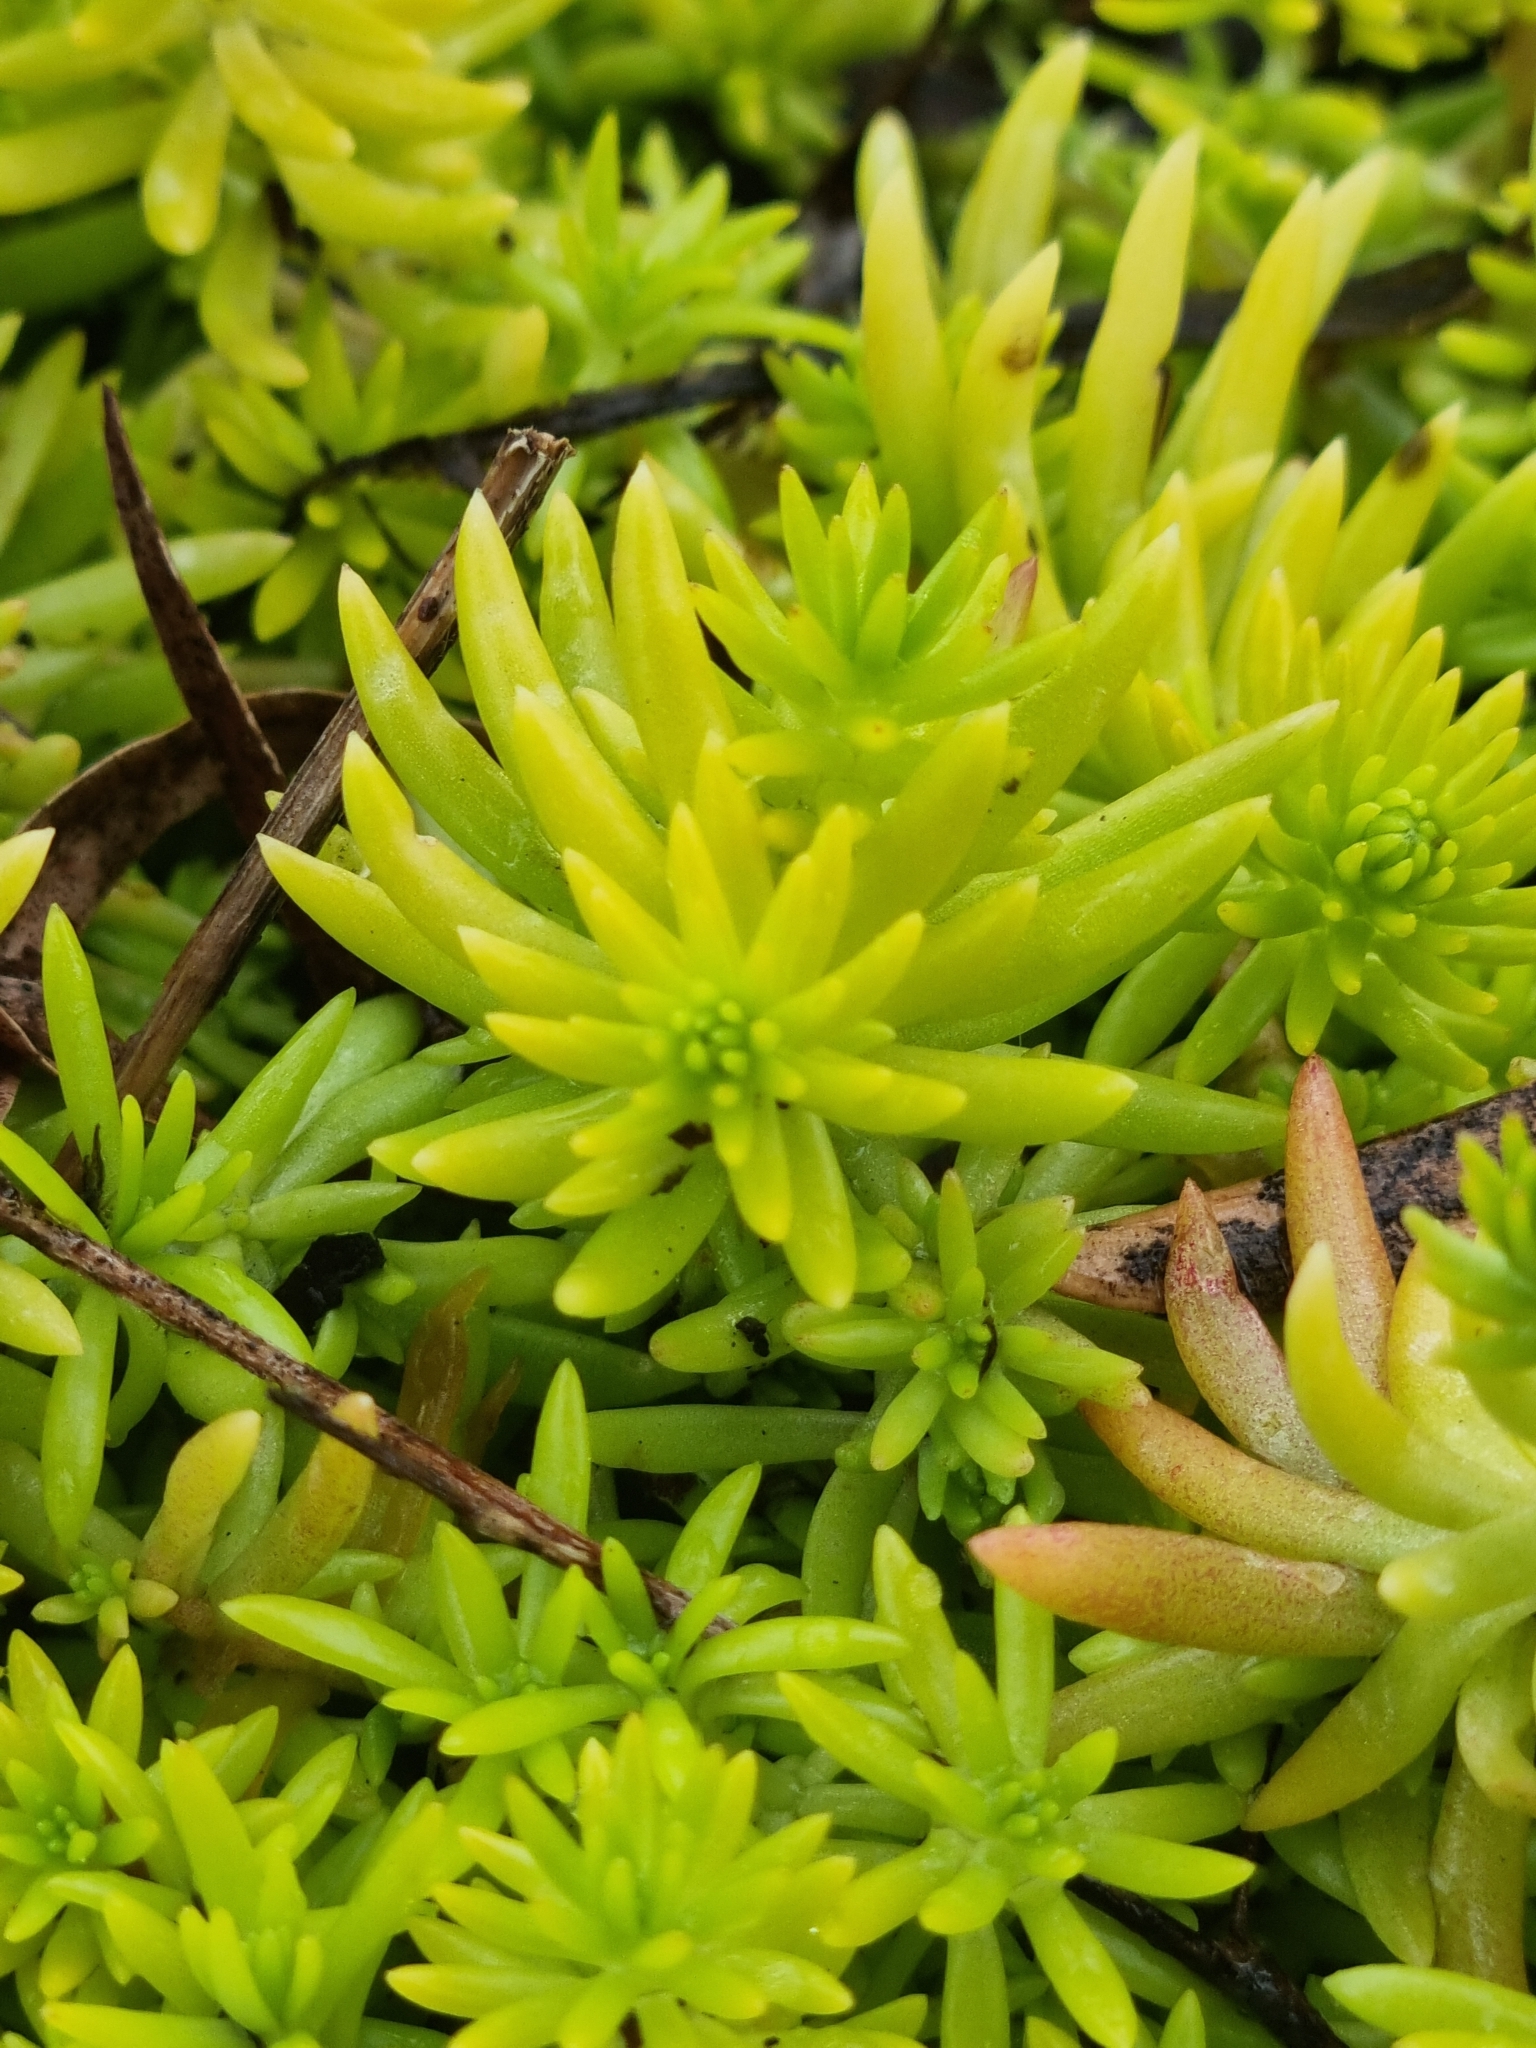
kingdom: Plantae
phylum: Tracheophyta
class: Magnoliopsida
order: Saxifragales
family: Crassulaceae
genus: Sedum
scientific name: Sedum mexicanum
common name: Mexican stonecrop
